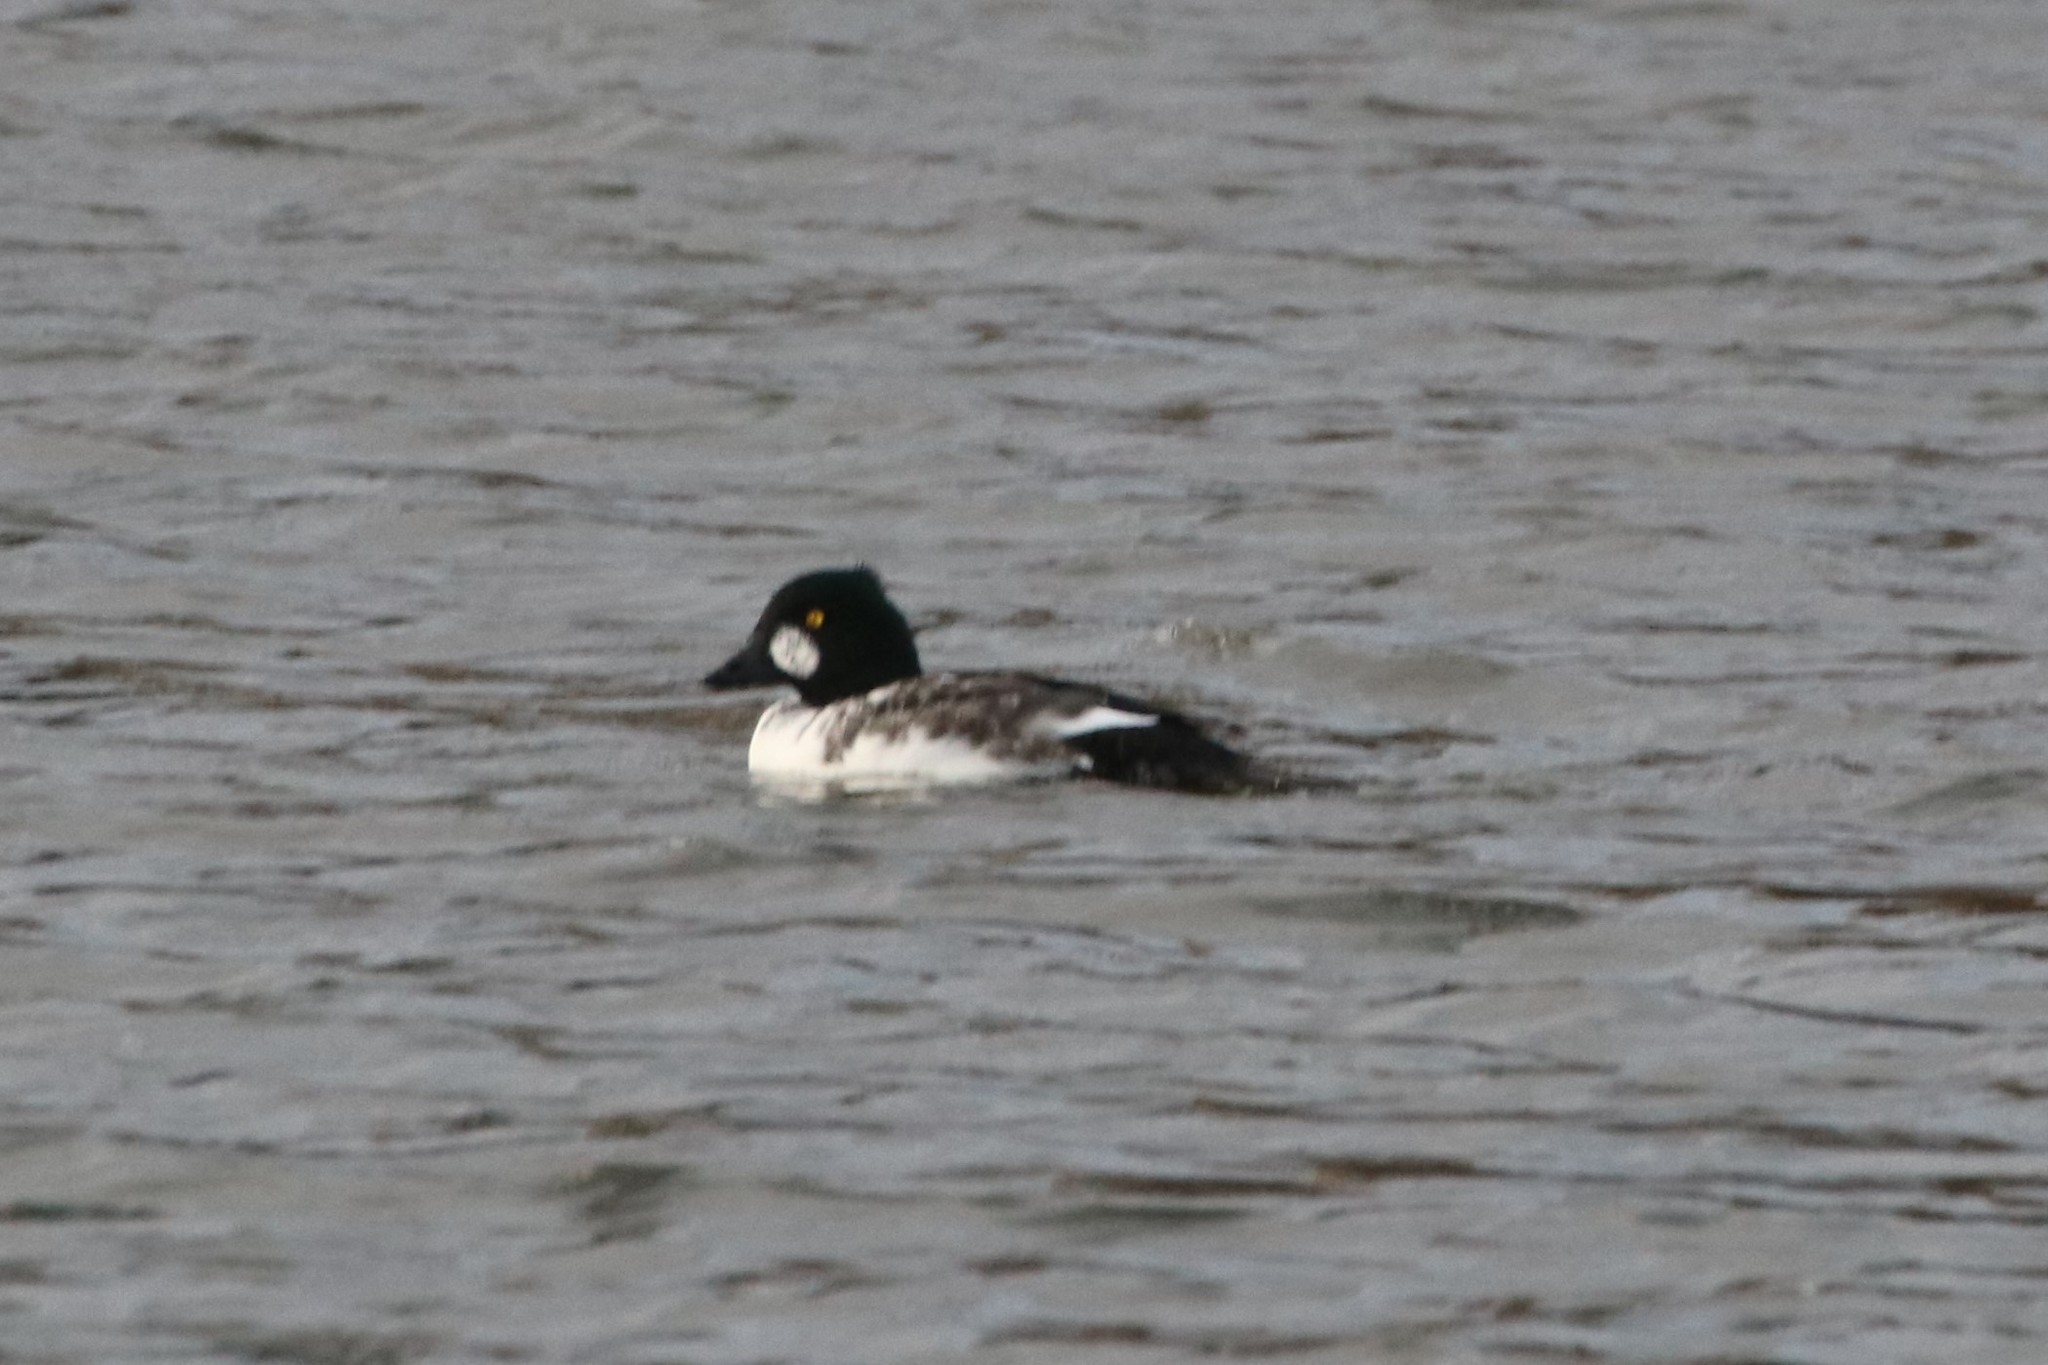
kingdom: Animalia
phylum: Chordata
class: Aves
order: Anseriformes
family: Anatidae
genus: Bucephala
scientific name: Bucephala clangula
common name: Common goldeneye
